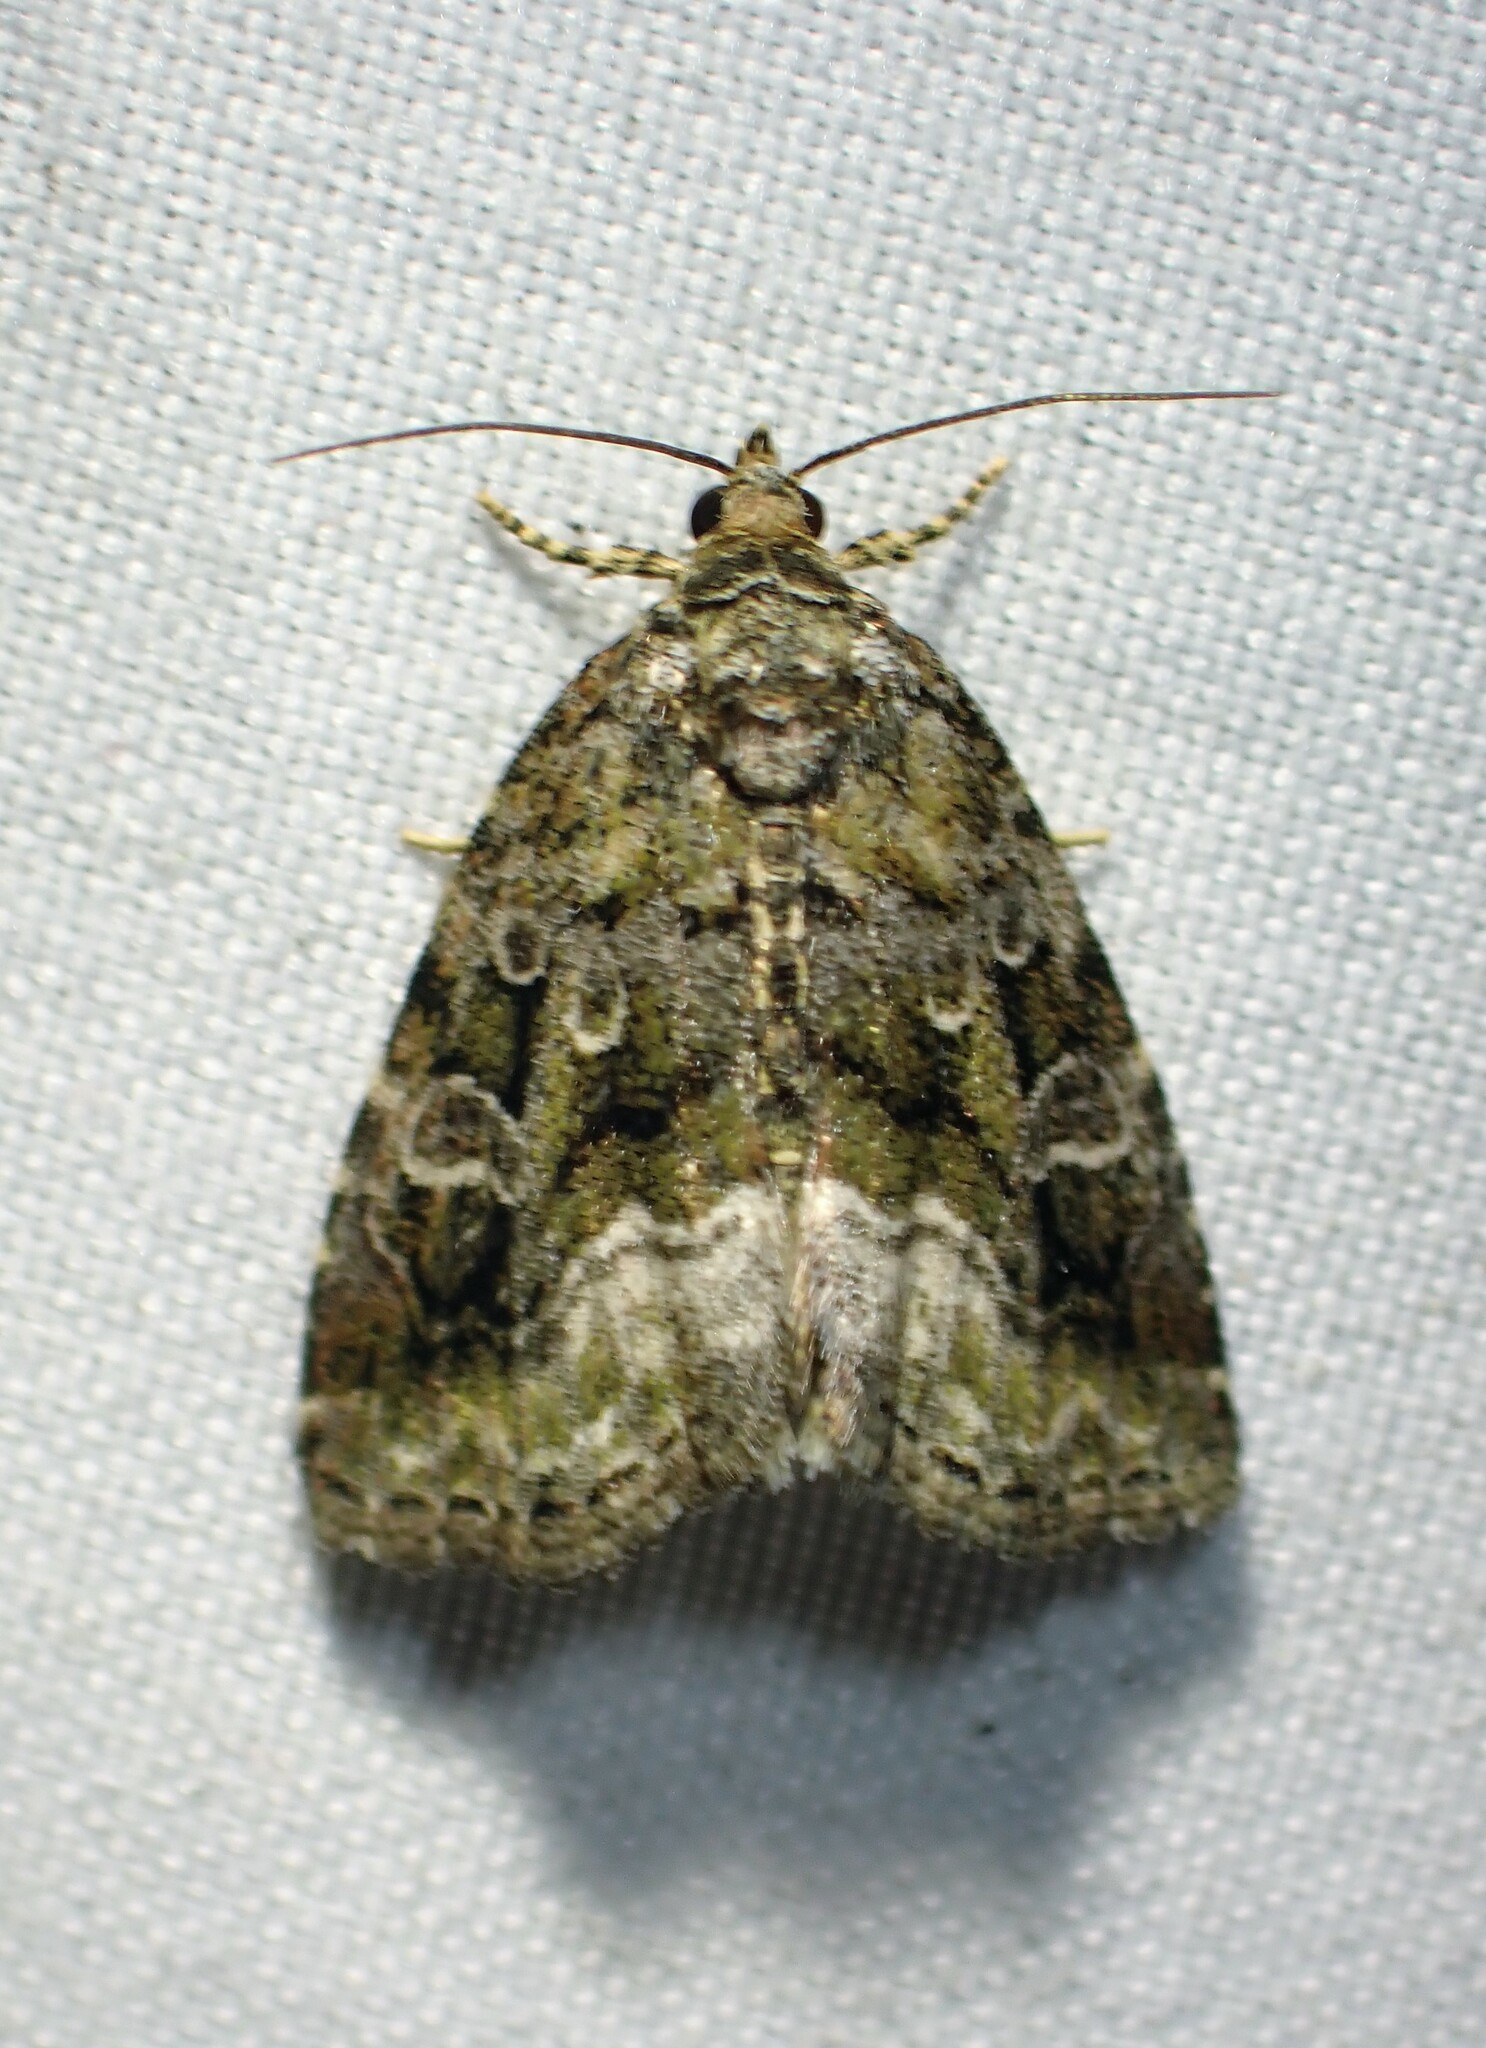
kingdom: Animalia
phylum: Arthropoda
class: Insecta
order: Lepidoptera
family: Noctuidae
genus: Protodeltote
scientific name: Protodeltote muscosula
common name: Large mossy glyph
